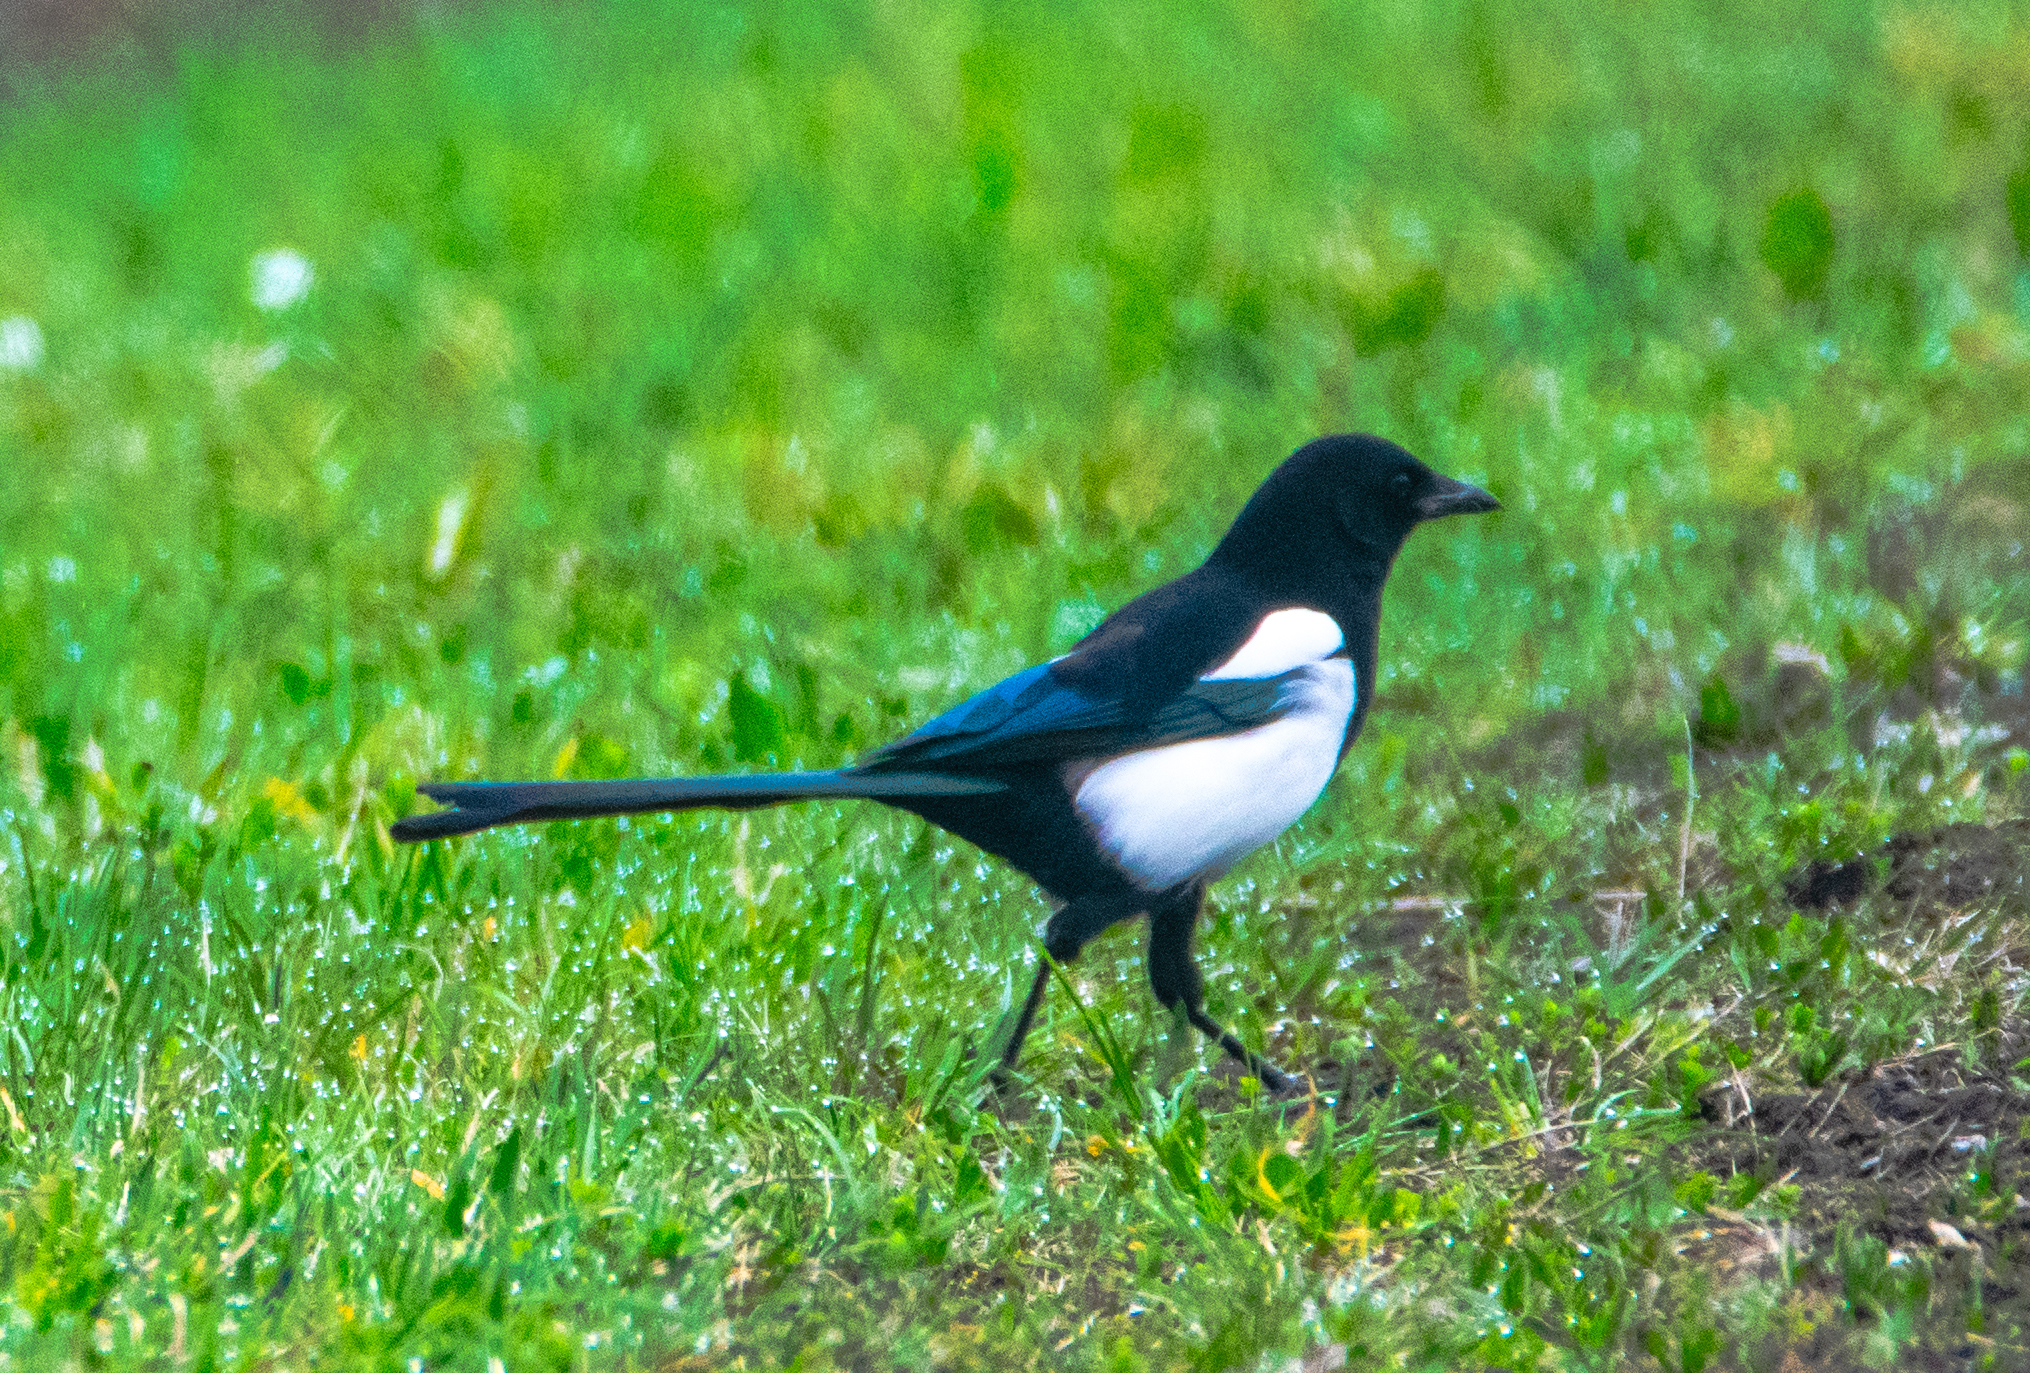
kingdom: Animalia
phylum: Chordata
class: Aves
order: Passeriformes
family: Corvidae
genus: Pica
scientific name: Pica pica
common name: Eurasian magpie
